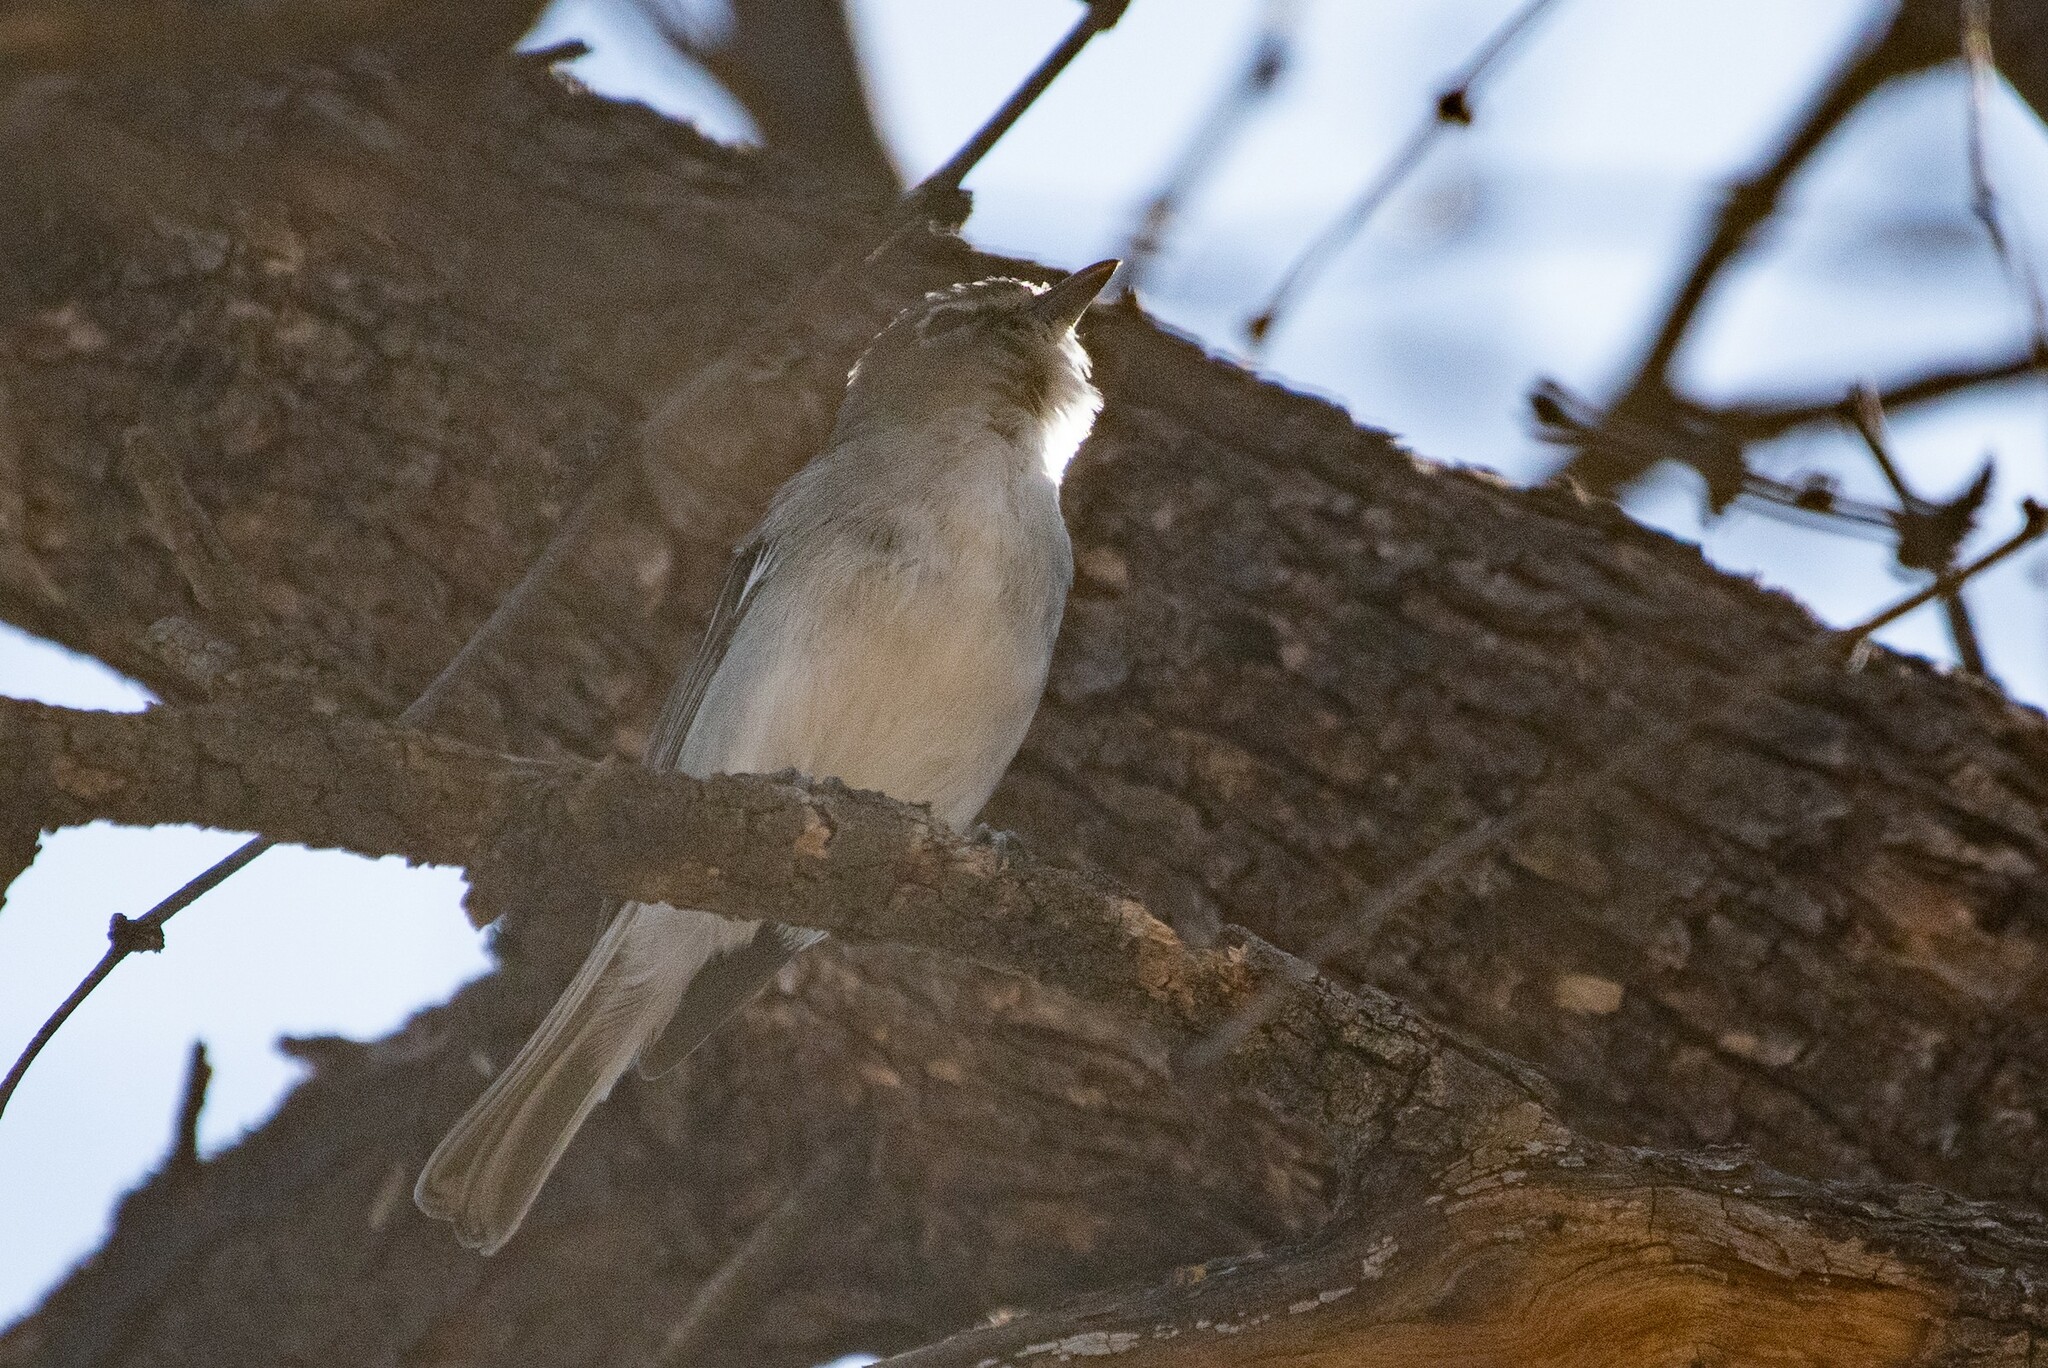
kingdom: Animalia
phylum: Chordata
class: Aves
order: Passeriformes
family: Vireonidae
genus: Vireo
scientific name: Vireo plumbeus
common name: Plumbeous vireo
